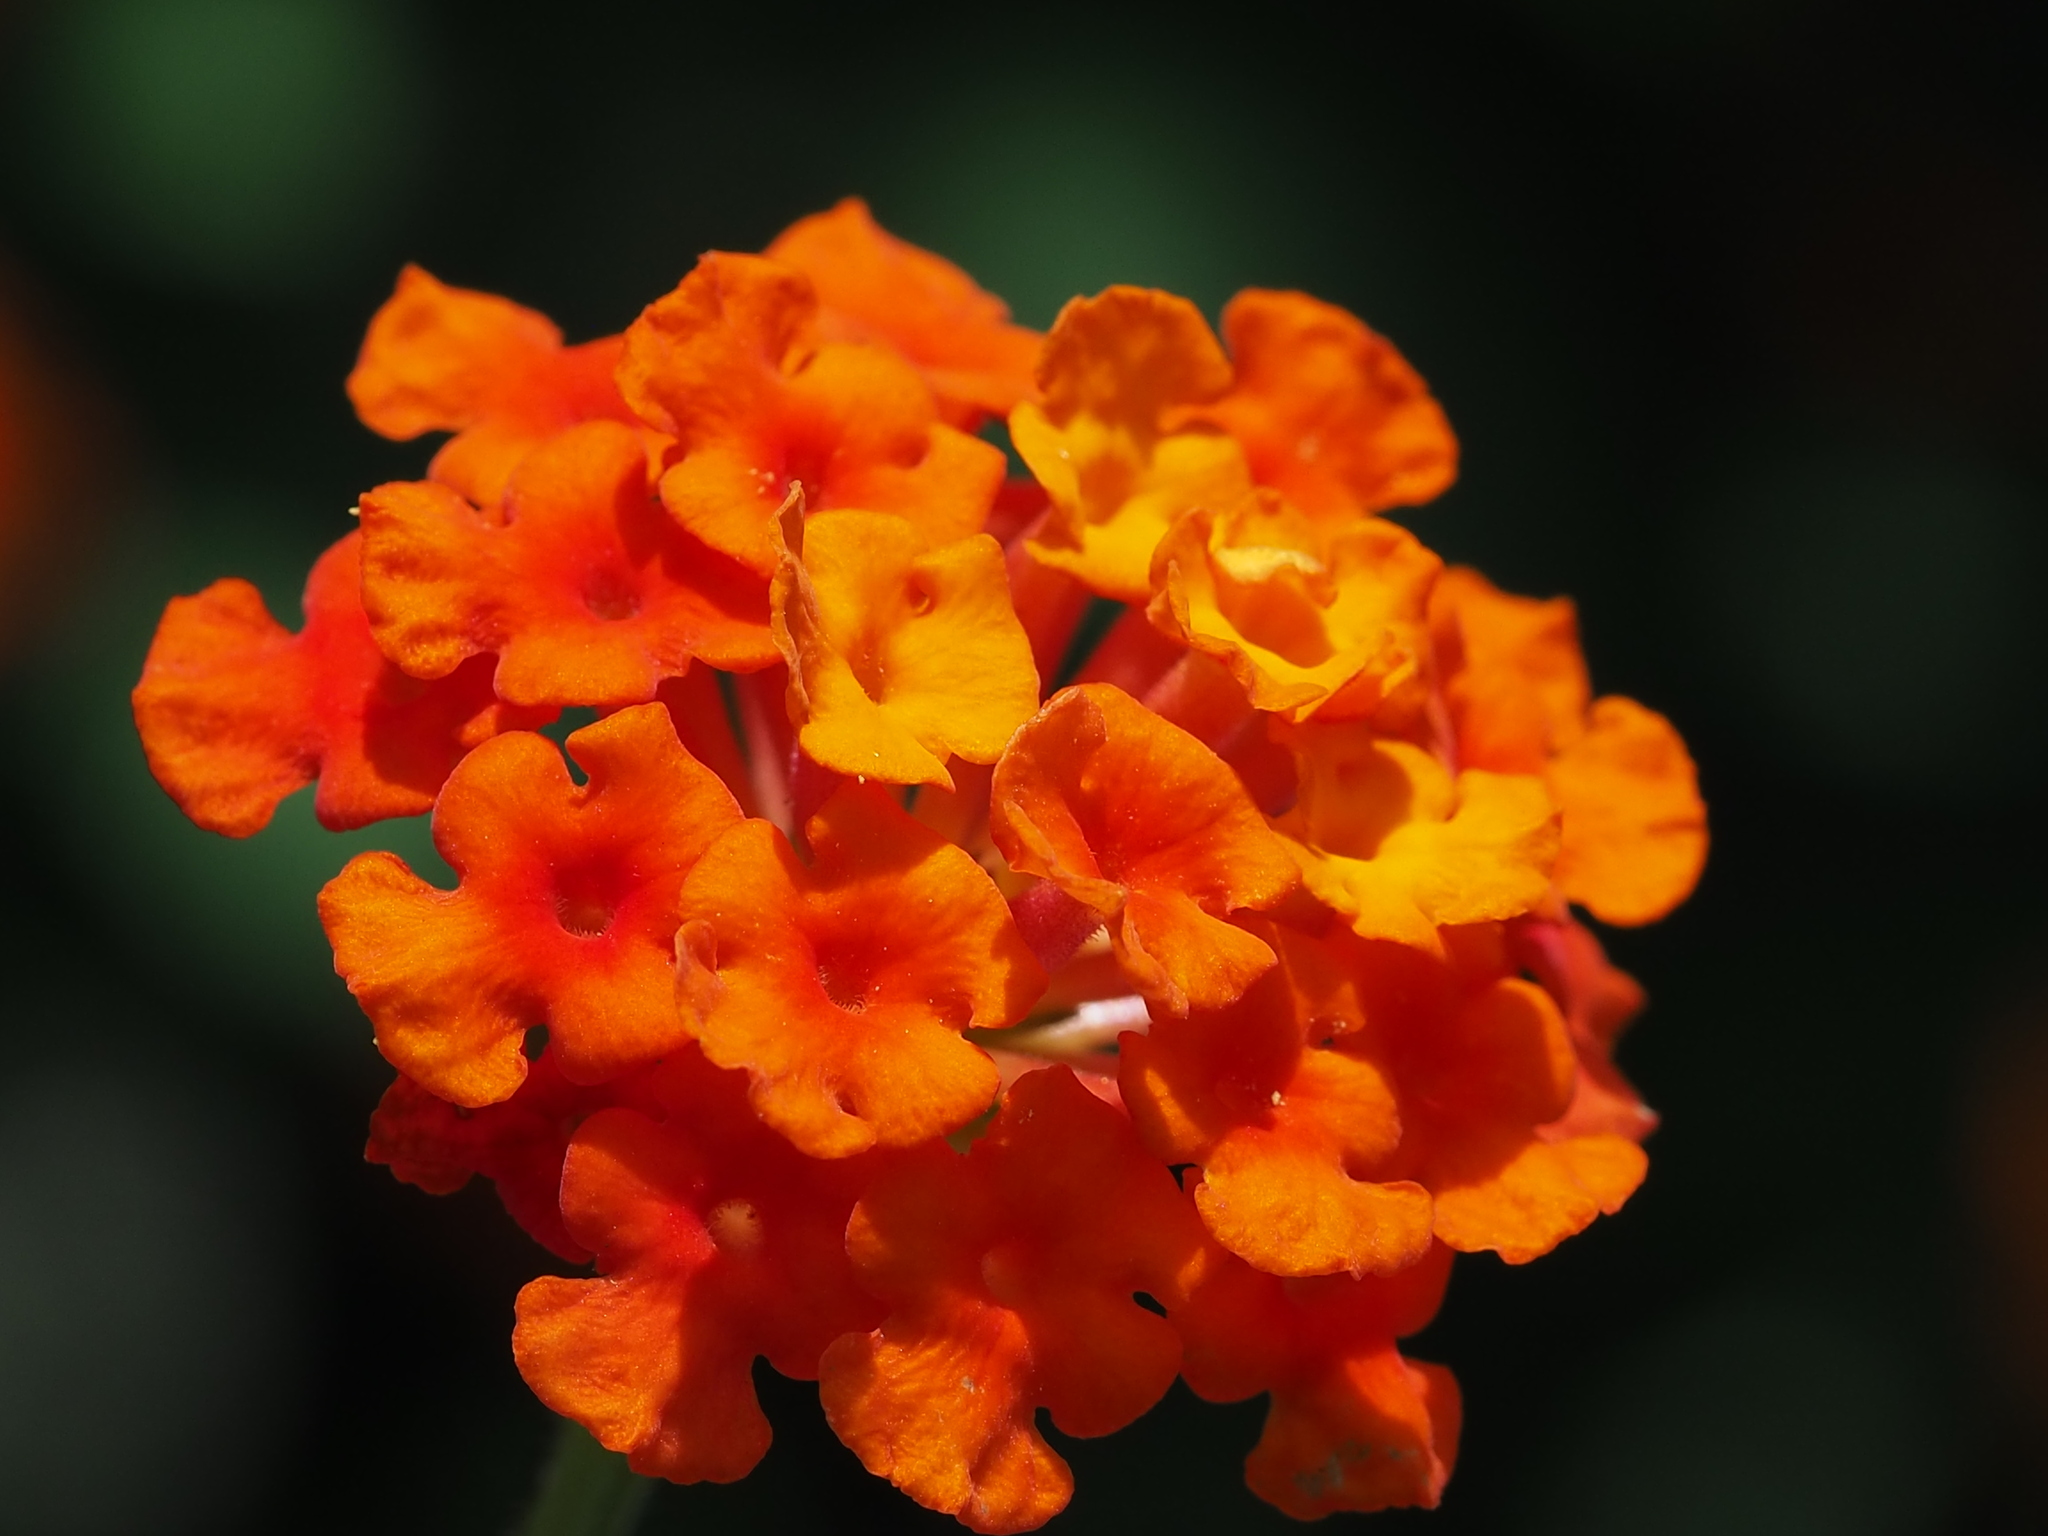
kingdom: Plantae
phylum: Tracheophyta
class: Magnoliopsida
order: Lamiales
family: Verbenaceae
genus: Lantana
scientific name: Lantana camara
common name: Lantana
